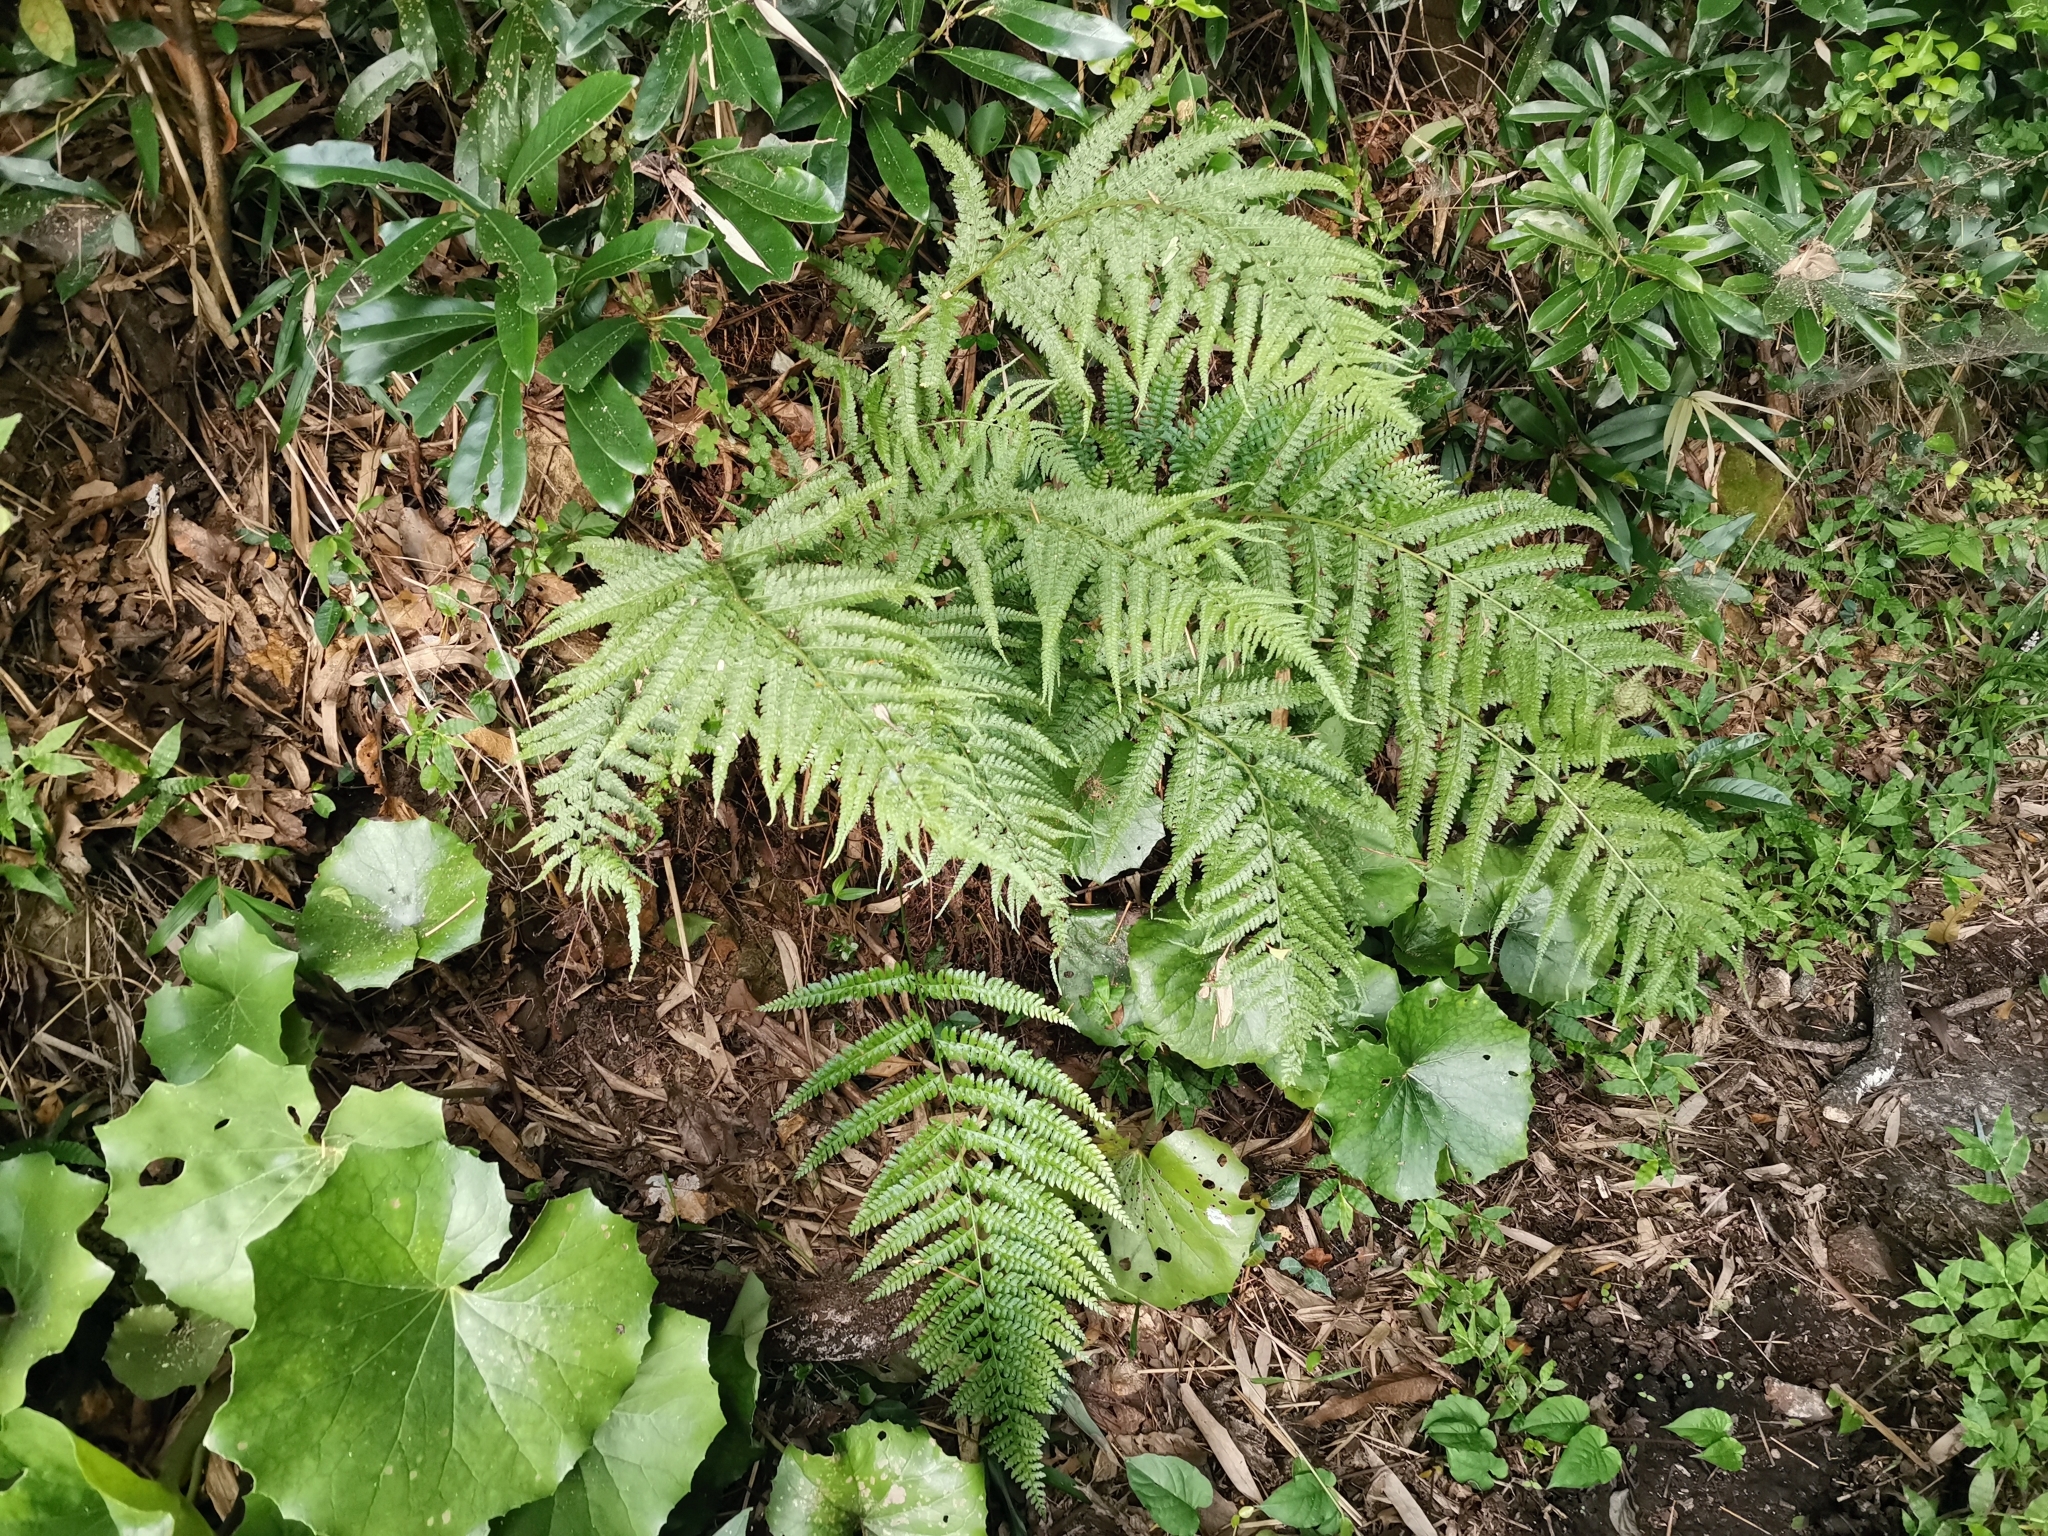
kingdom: Plantae
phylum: Tracheophyta
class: Polypodiopsida
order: Polypodiales
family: Dennstaedtiaceae
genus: Microlepia
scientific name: Microlepia strigosa
